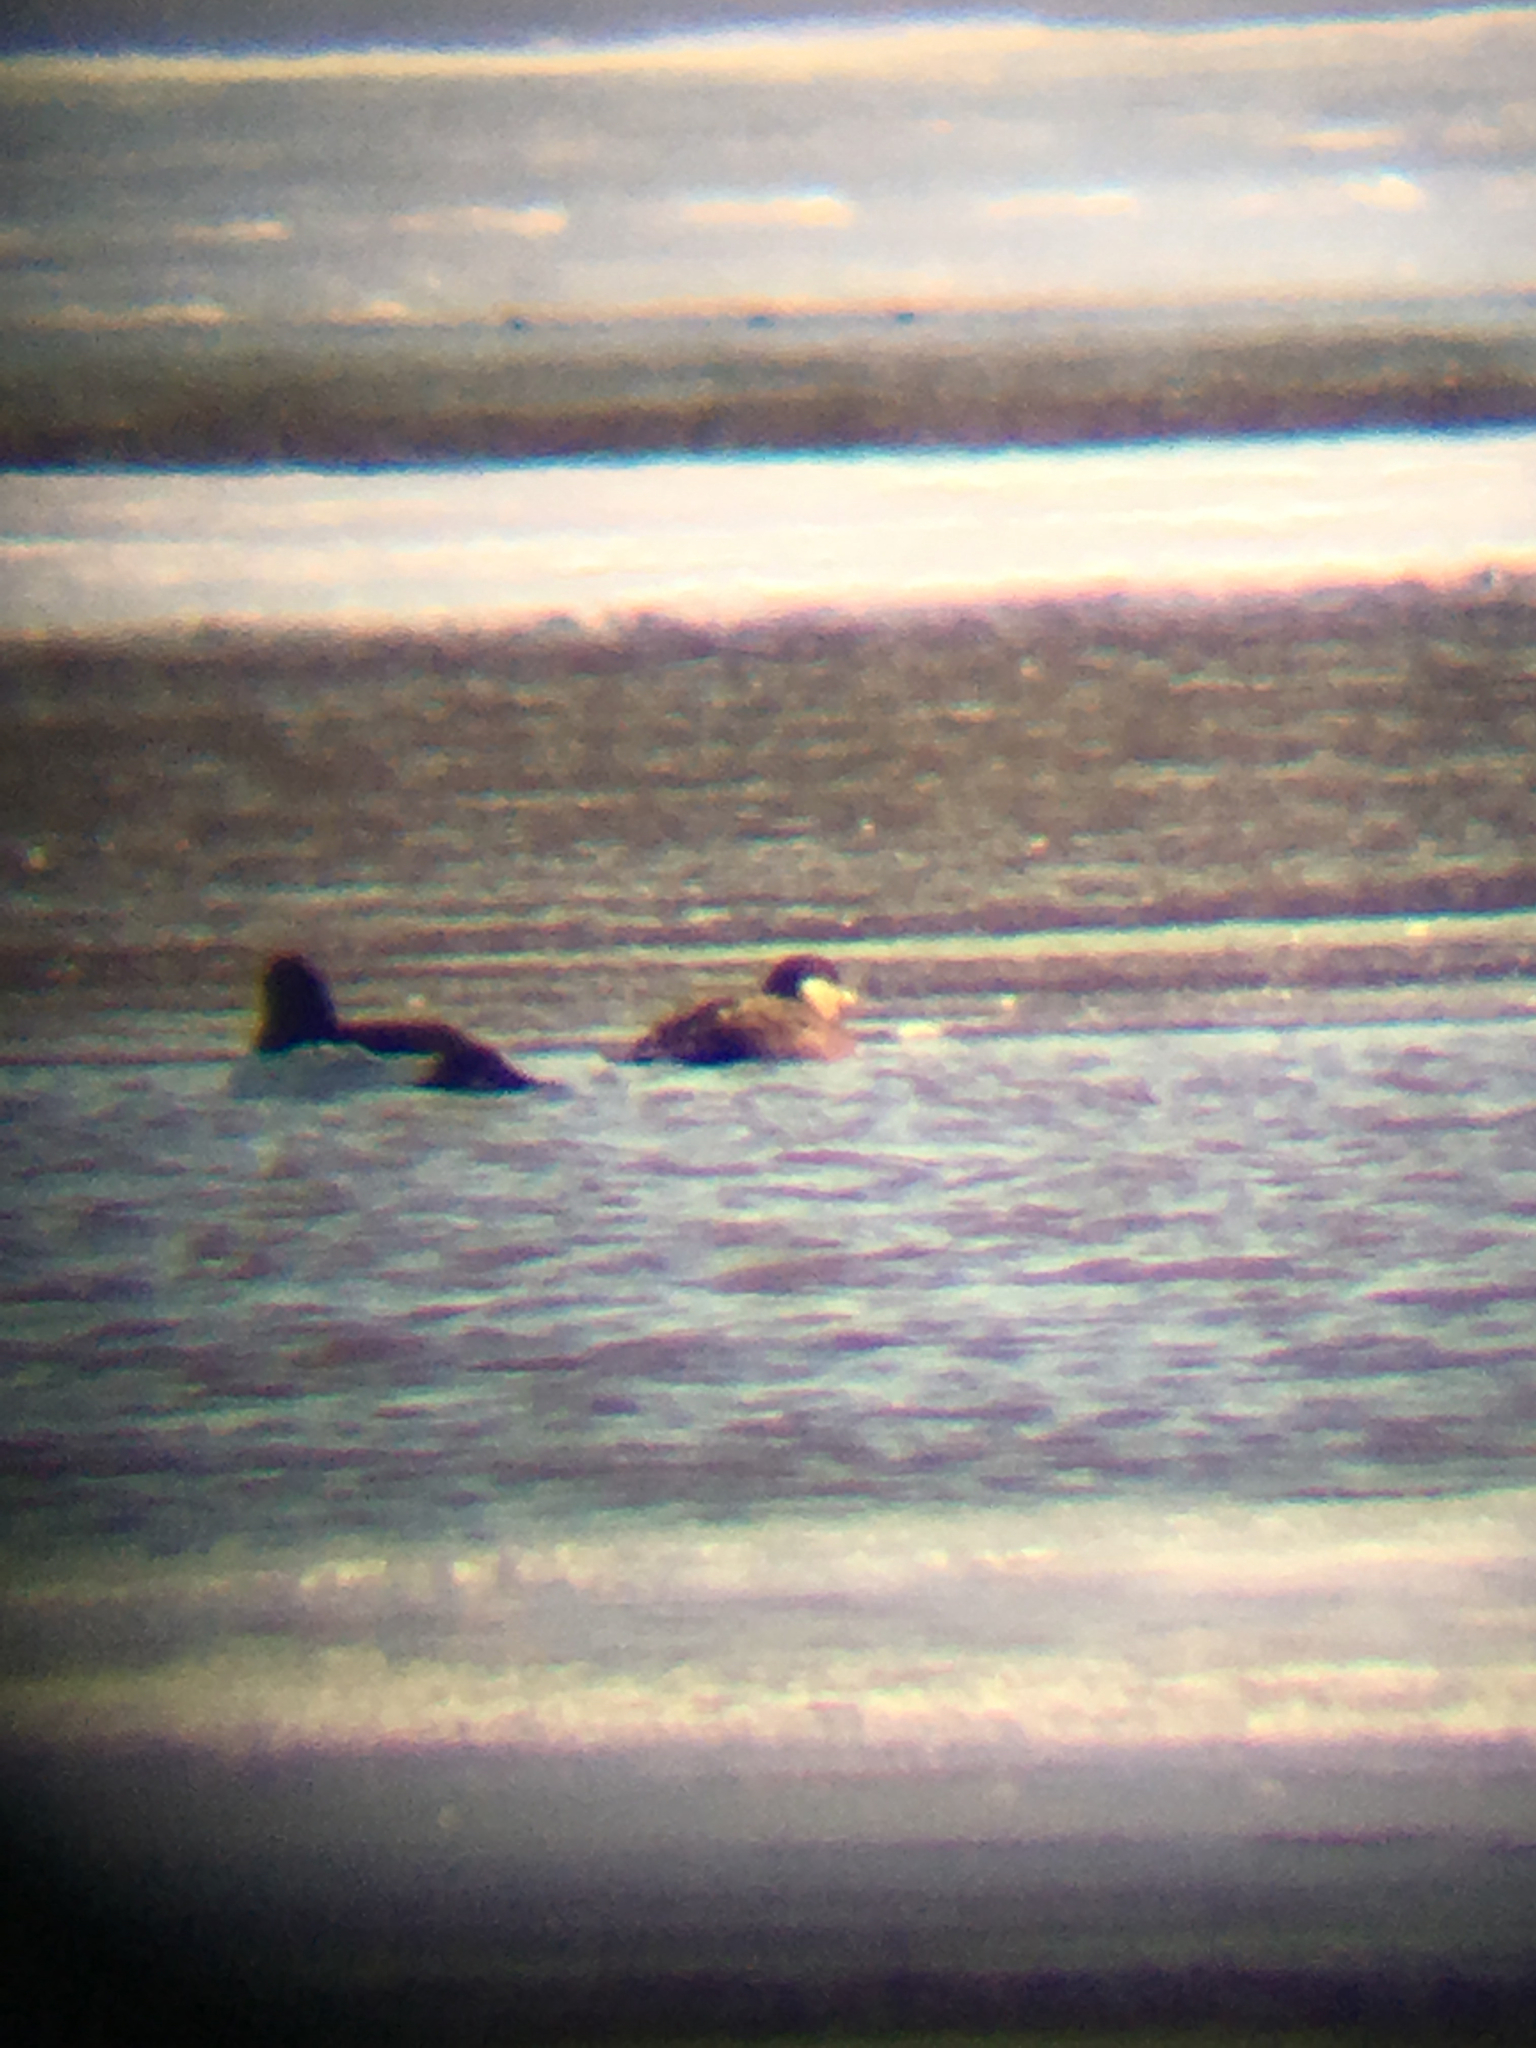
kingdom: Animalia
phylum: Chordata
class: Aves
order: Anseriformes
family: Anatidae
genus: Melanitta
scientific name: Melanitta americana
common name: Black scoter
